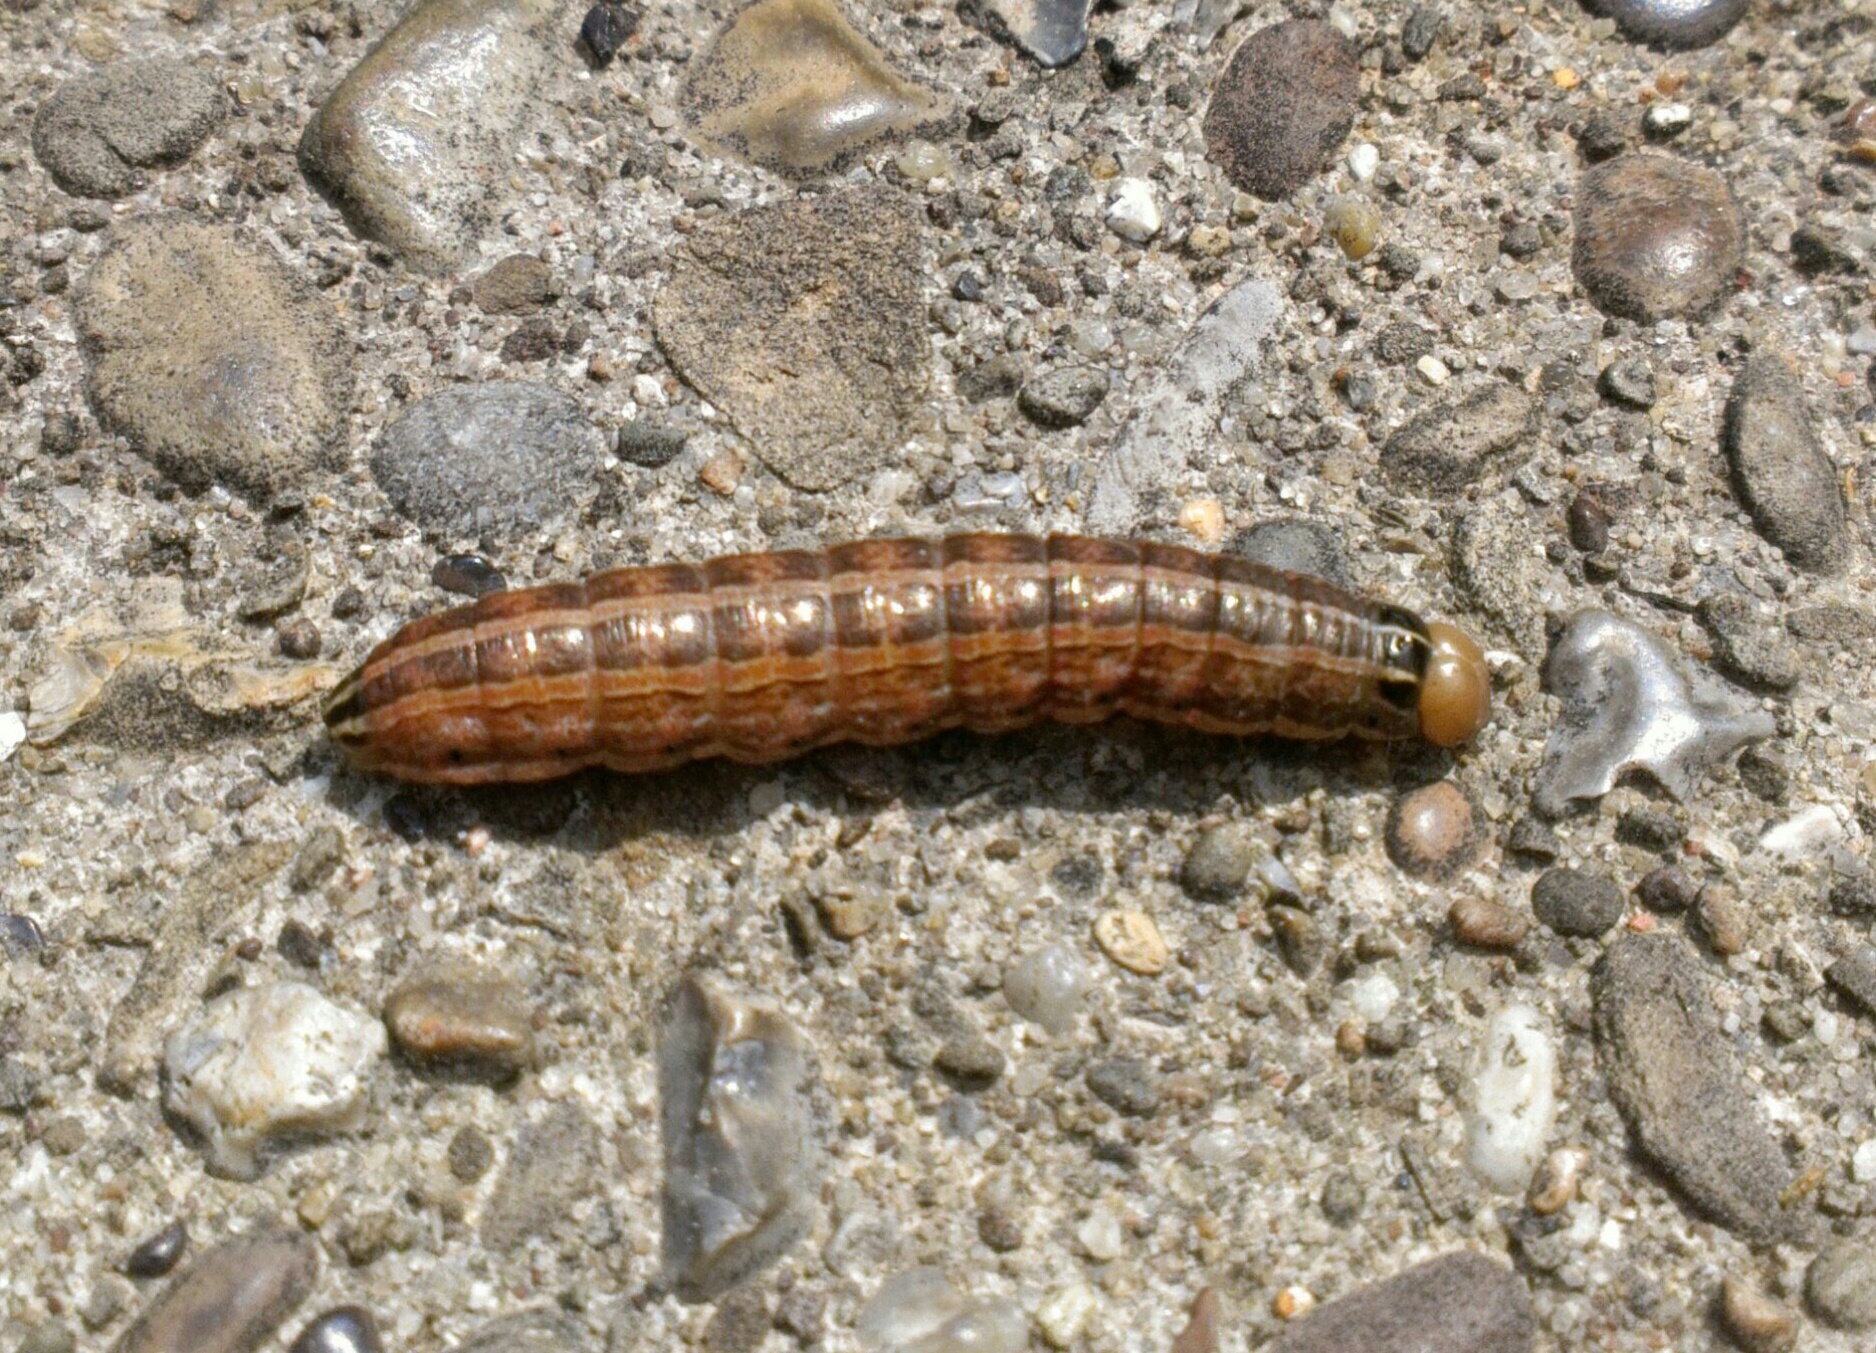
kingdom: Animalia
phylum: Arthropoda
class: Insecta
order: Lepidoptera
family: Noctuidae
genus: Nephelodes
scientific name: Nephelodes minians
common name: Bronzed cutworm
